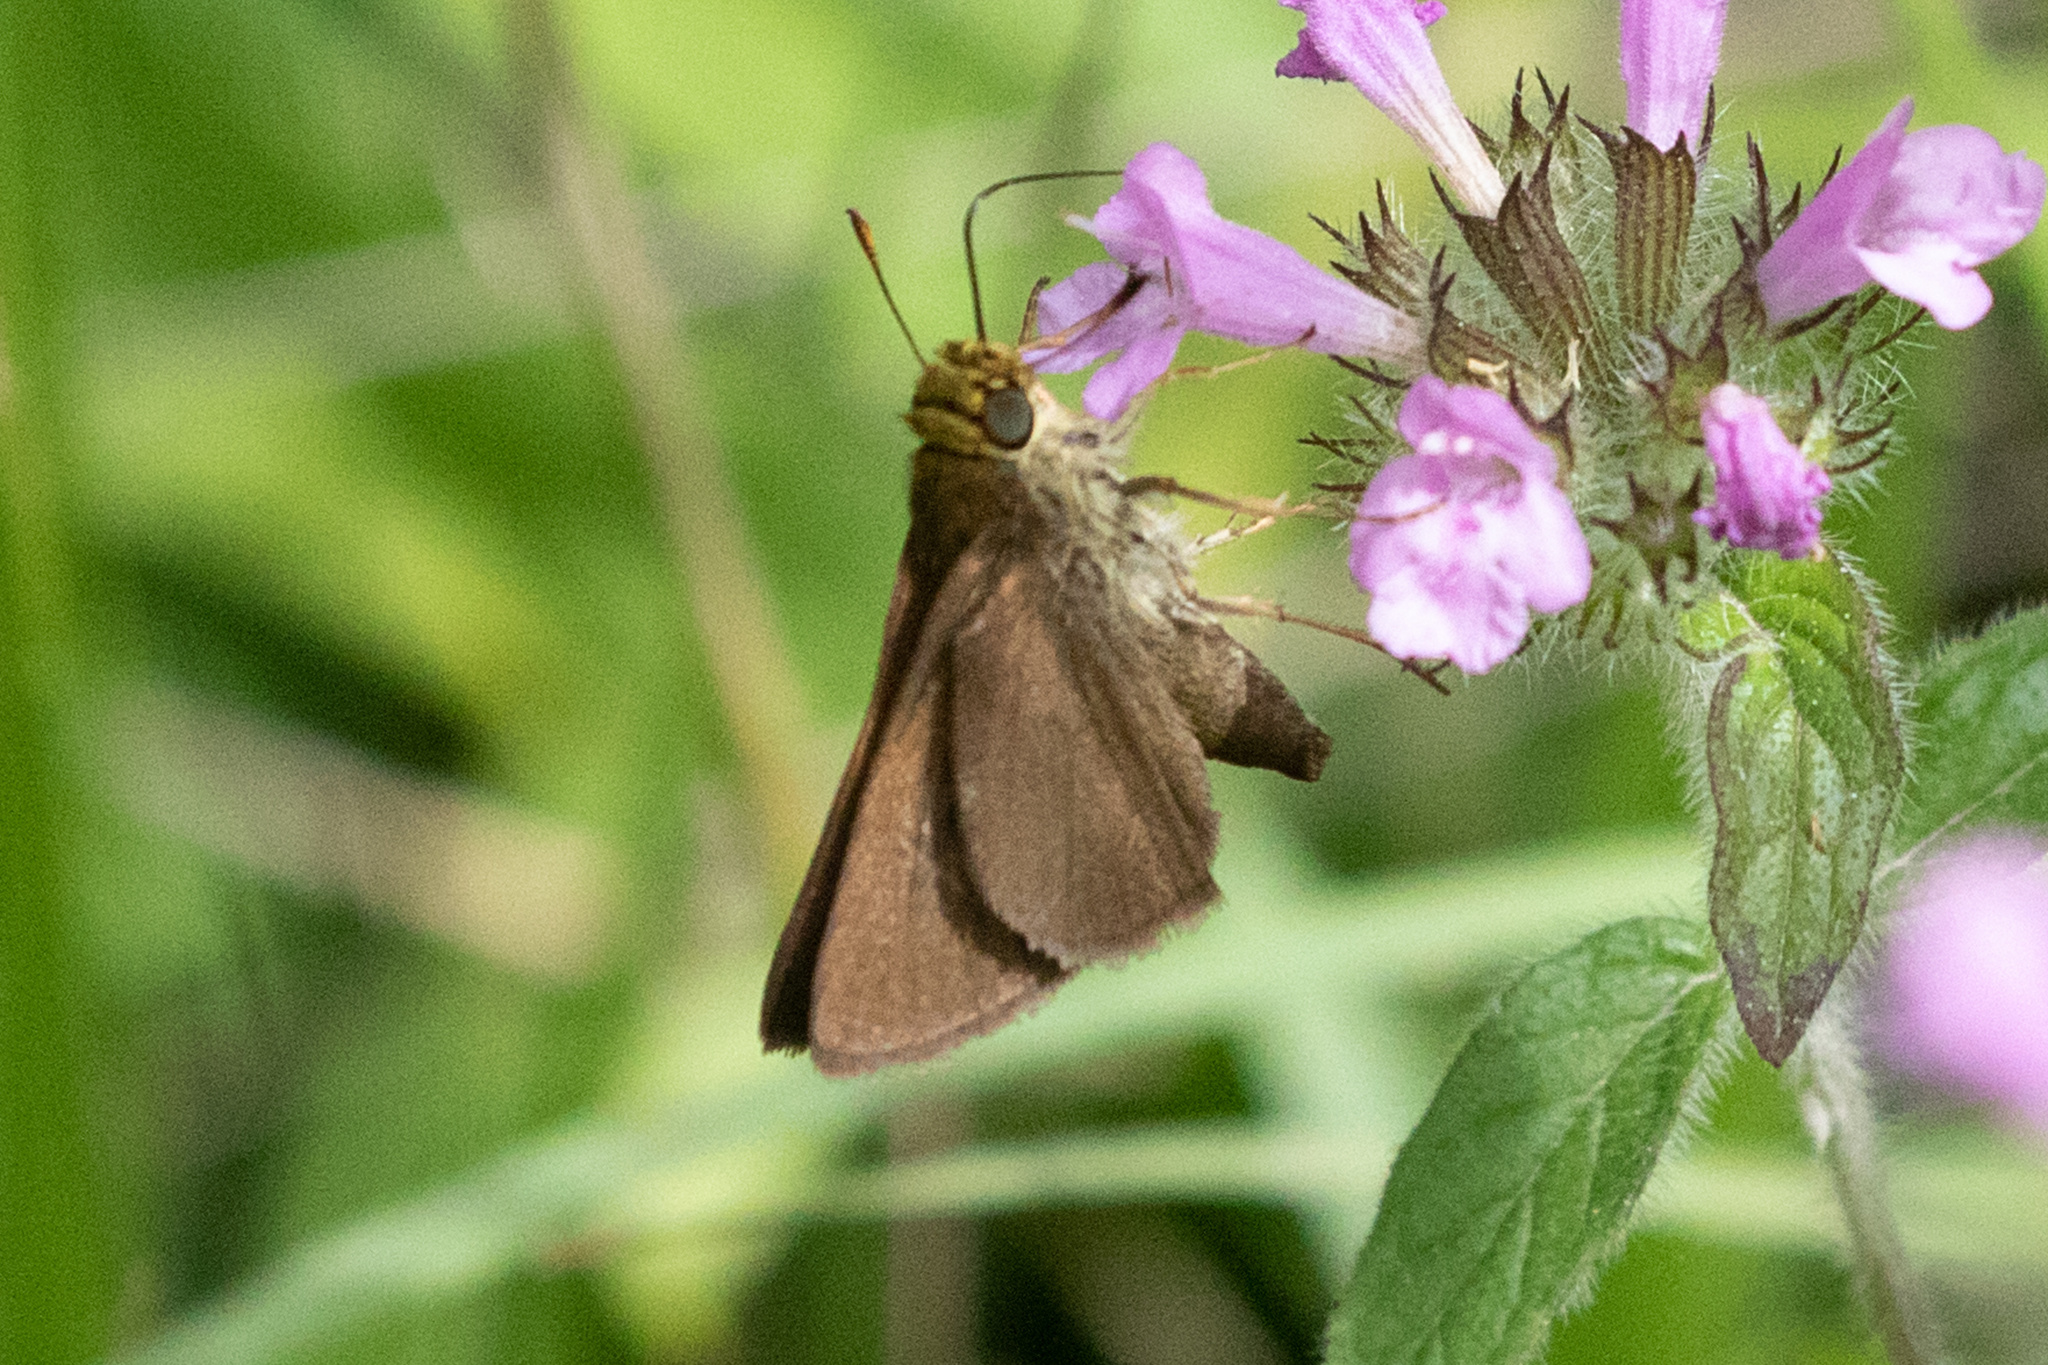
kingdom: Animalia
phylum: Arthropoda
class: Insecta
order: Lepidoptera
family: Hesperiidae
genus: Euphyes
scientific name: Euphyes vestris
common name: Dun skipper
